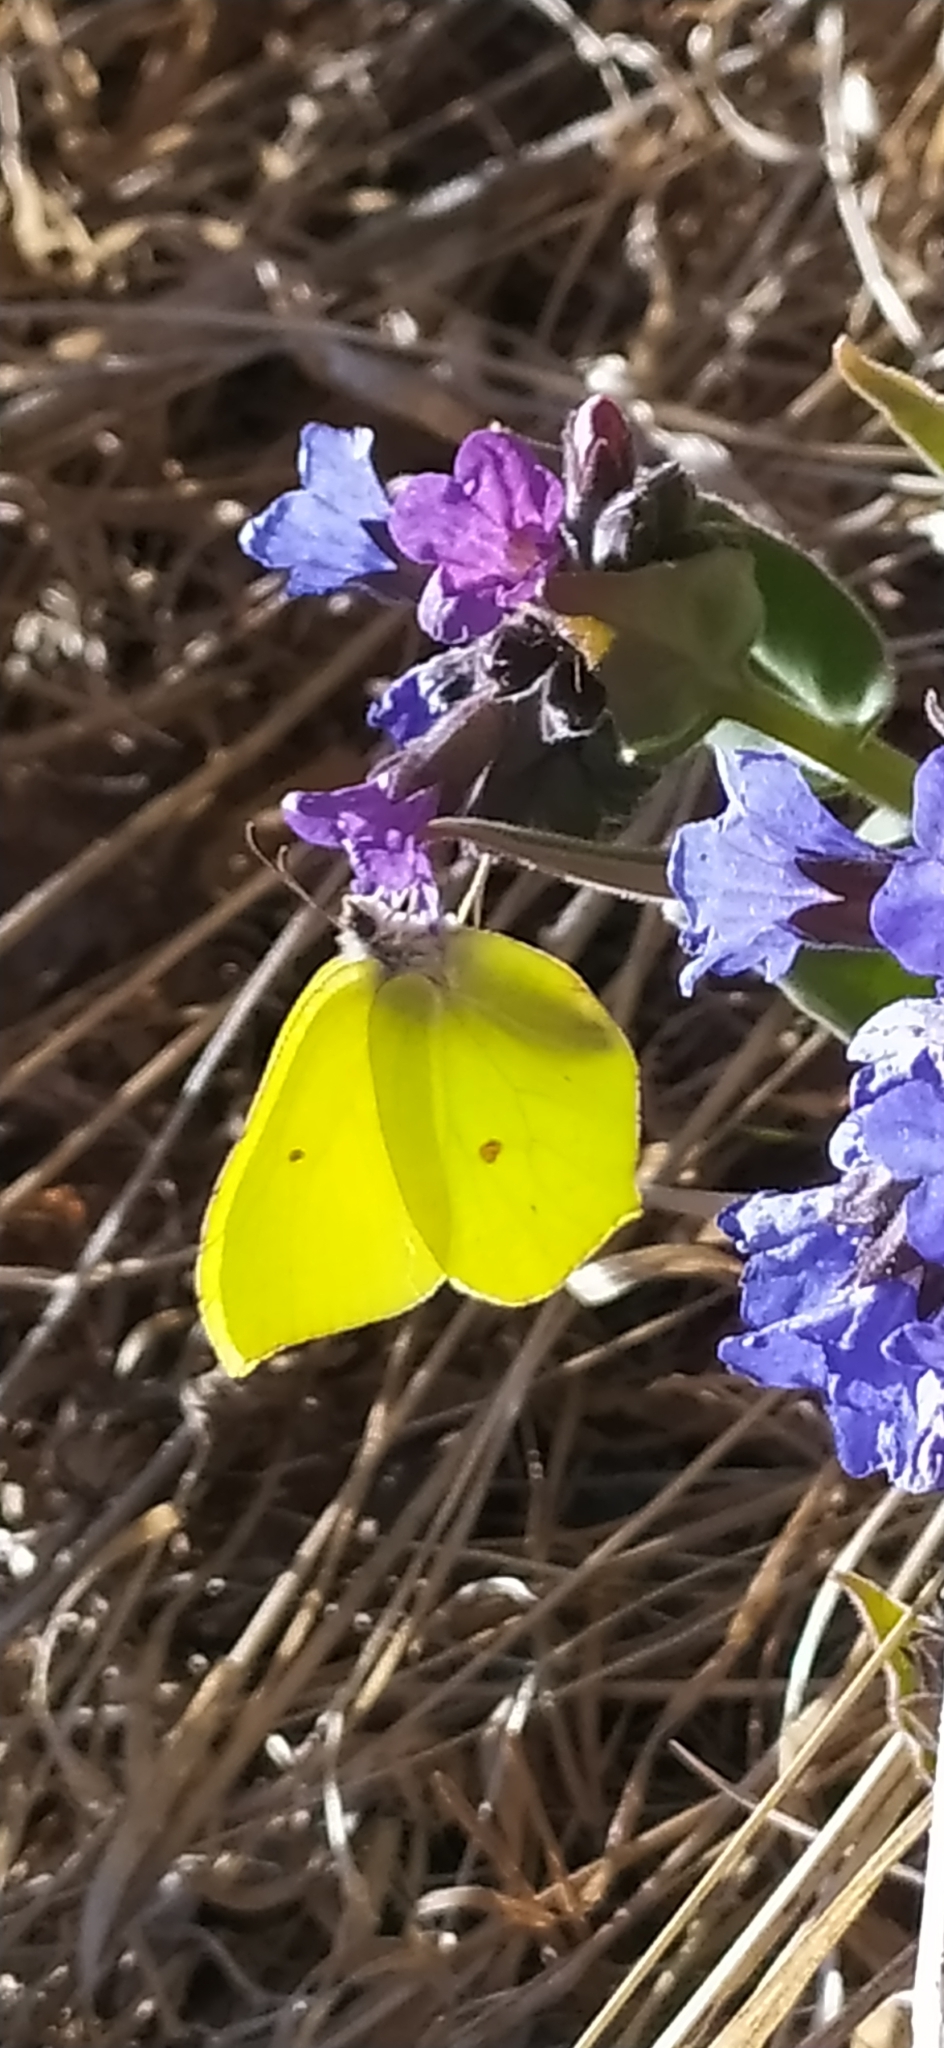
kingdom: Animalia
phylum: Arthropoda
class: Insecta
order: Lepidoptera
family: Pieridae
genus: Gonepteryx
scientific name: Gonepteryx rhamni
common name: Brimstone
